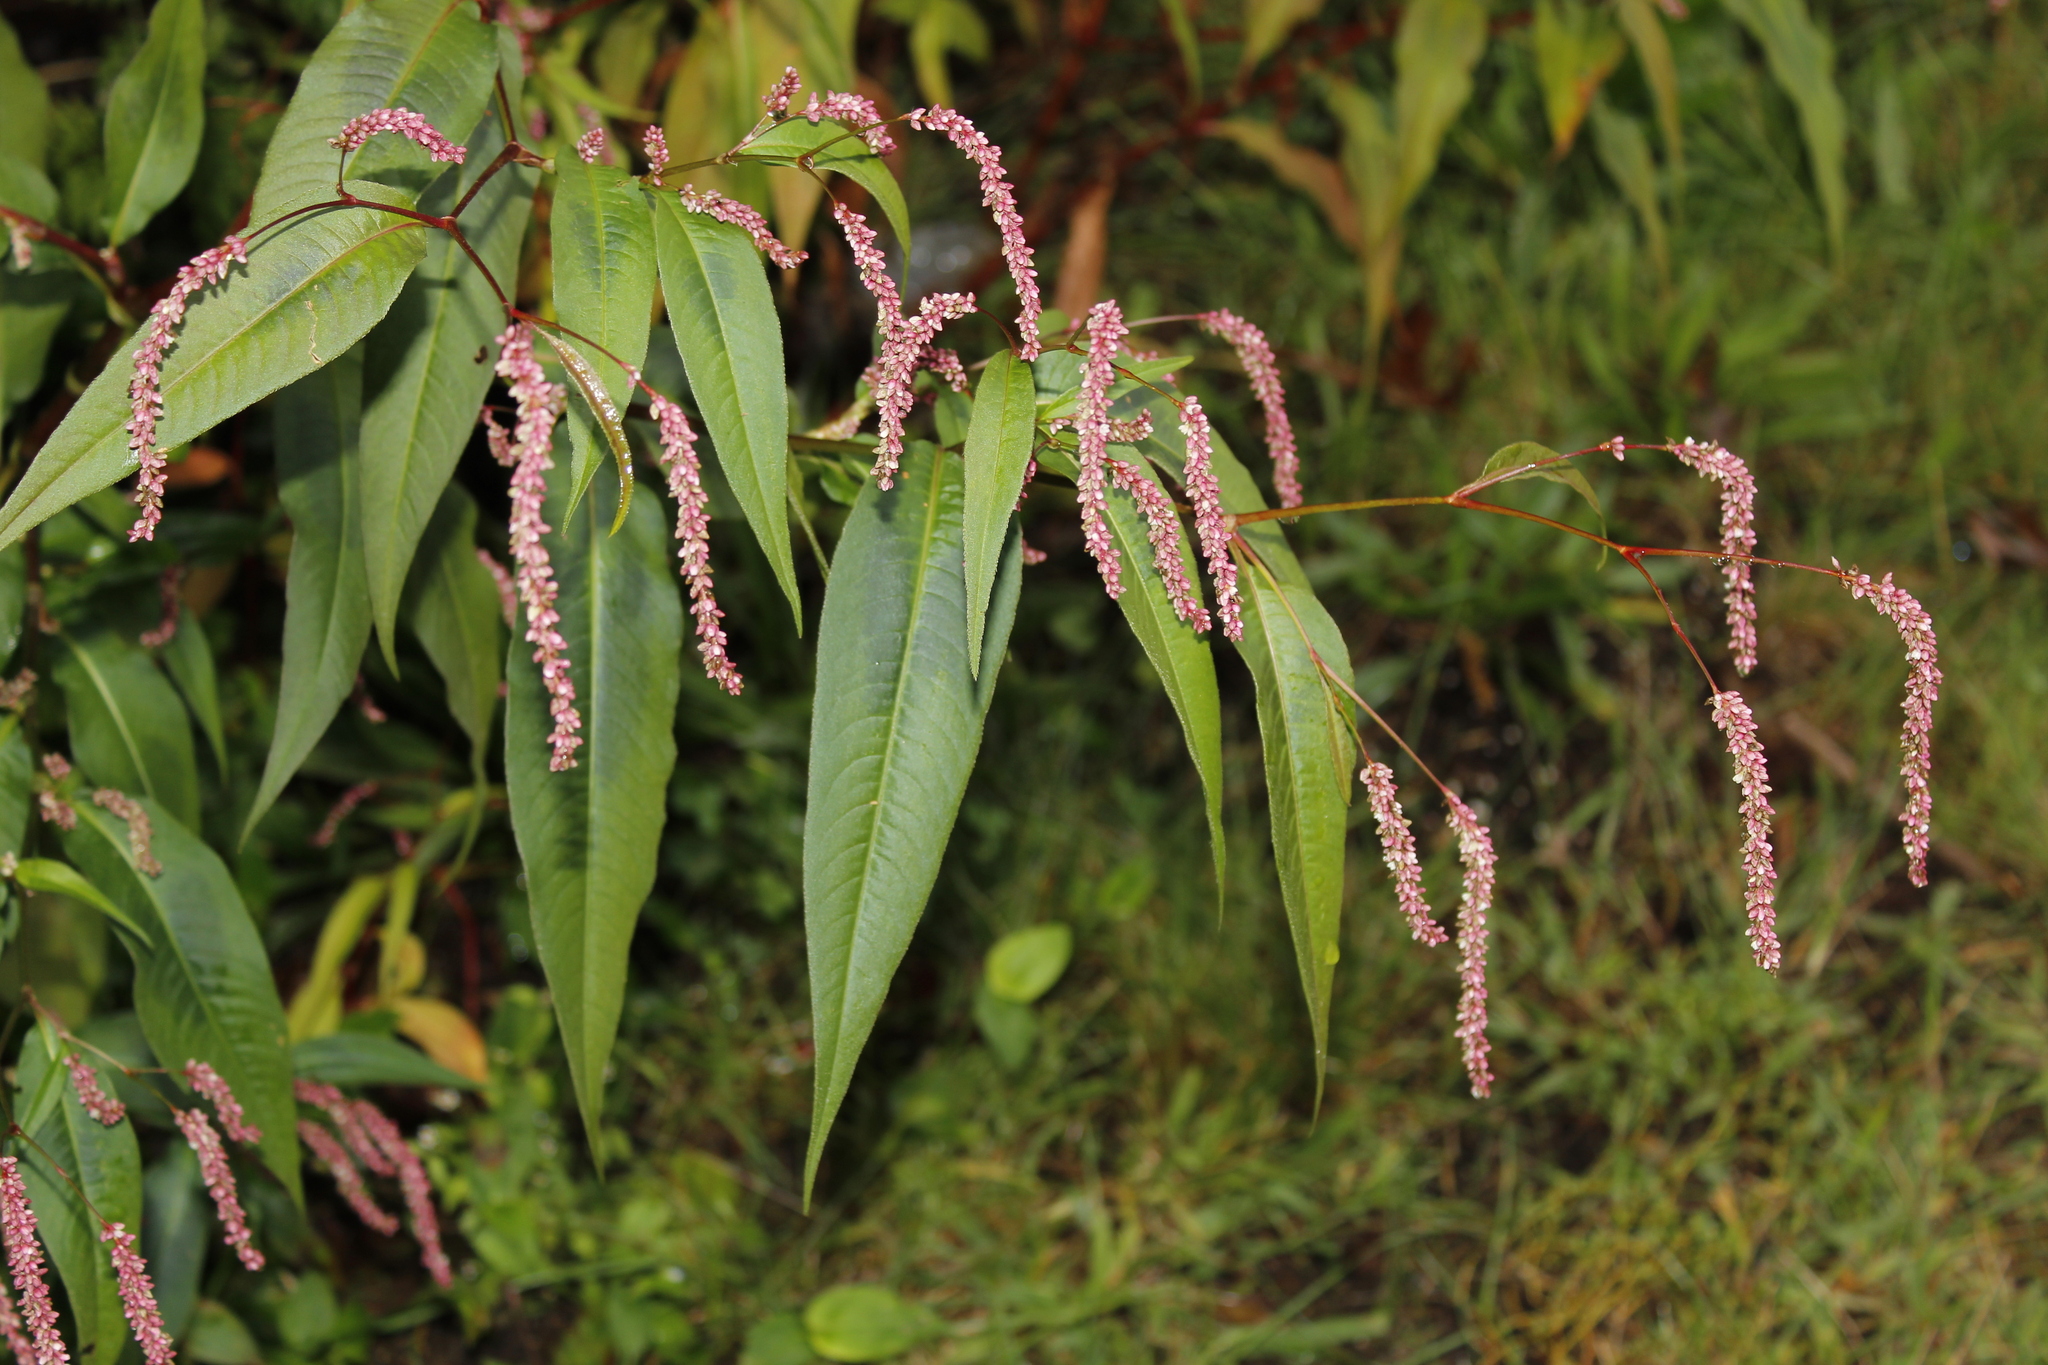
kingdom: Plantae
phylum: Tracheophyta
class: Magnoliopsida
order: Caryophyllales
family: Polygonaceae
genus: Persicaria
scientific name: Persicaria extremiorientalis
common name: Far-eastern smartweed
